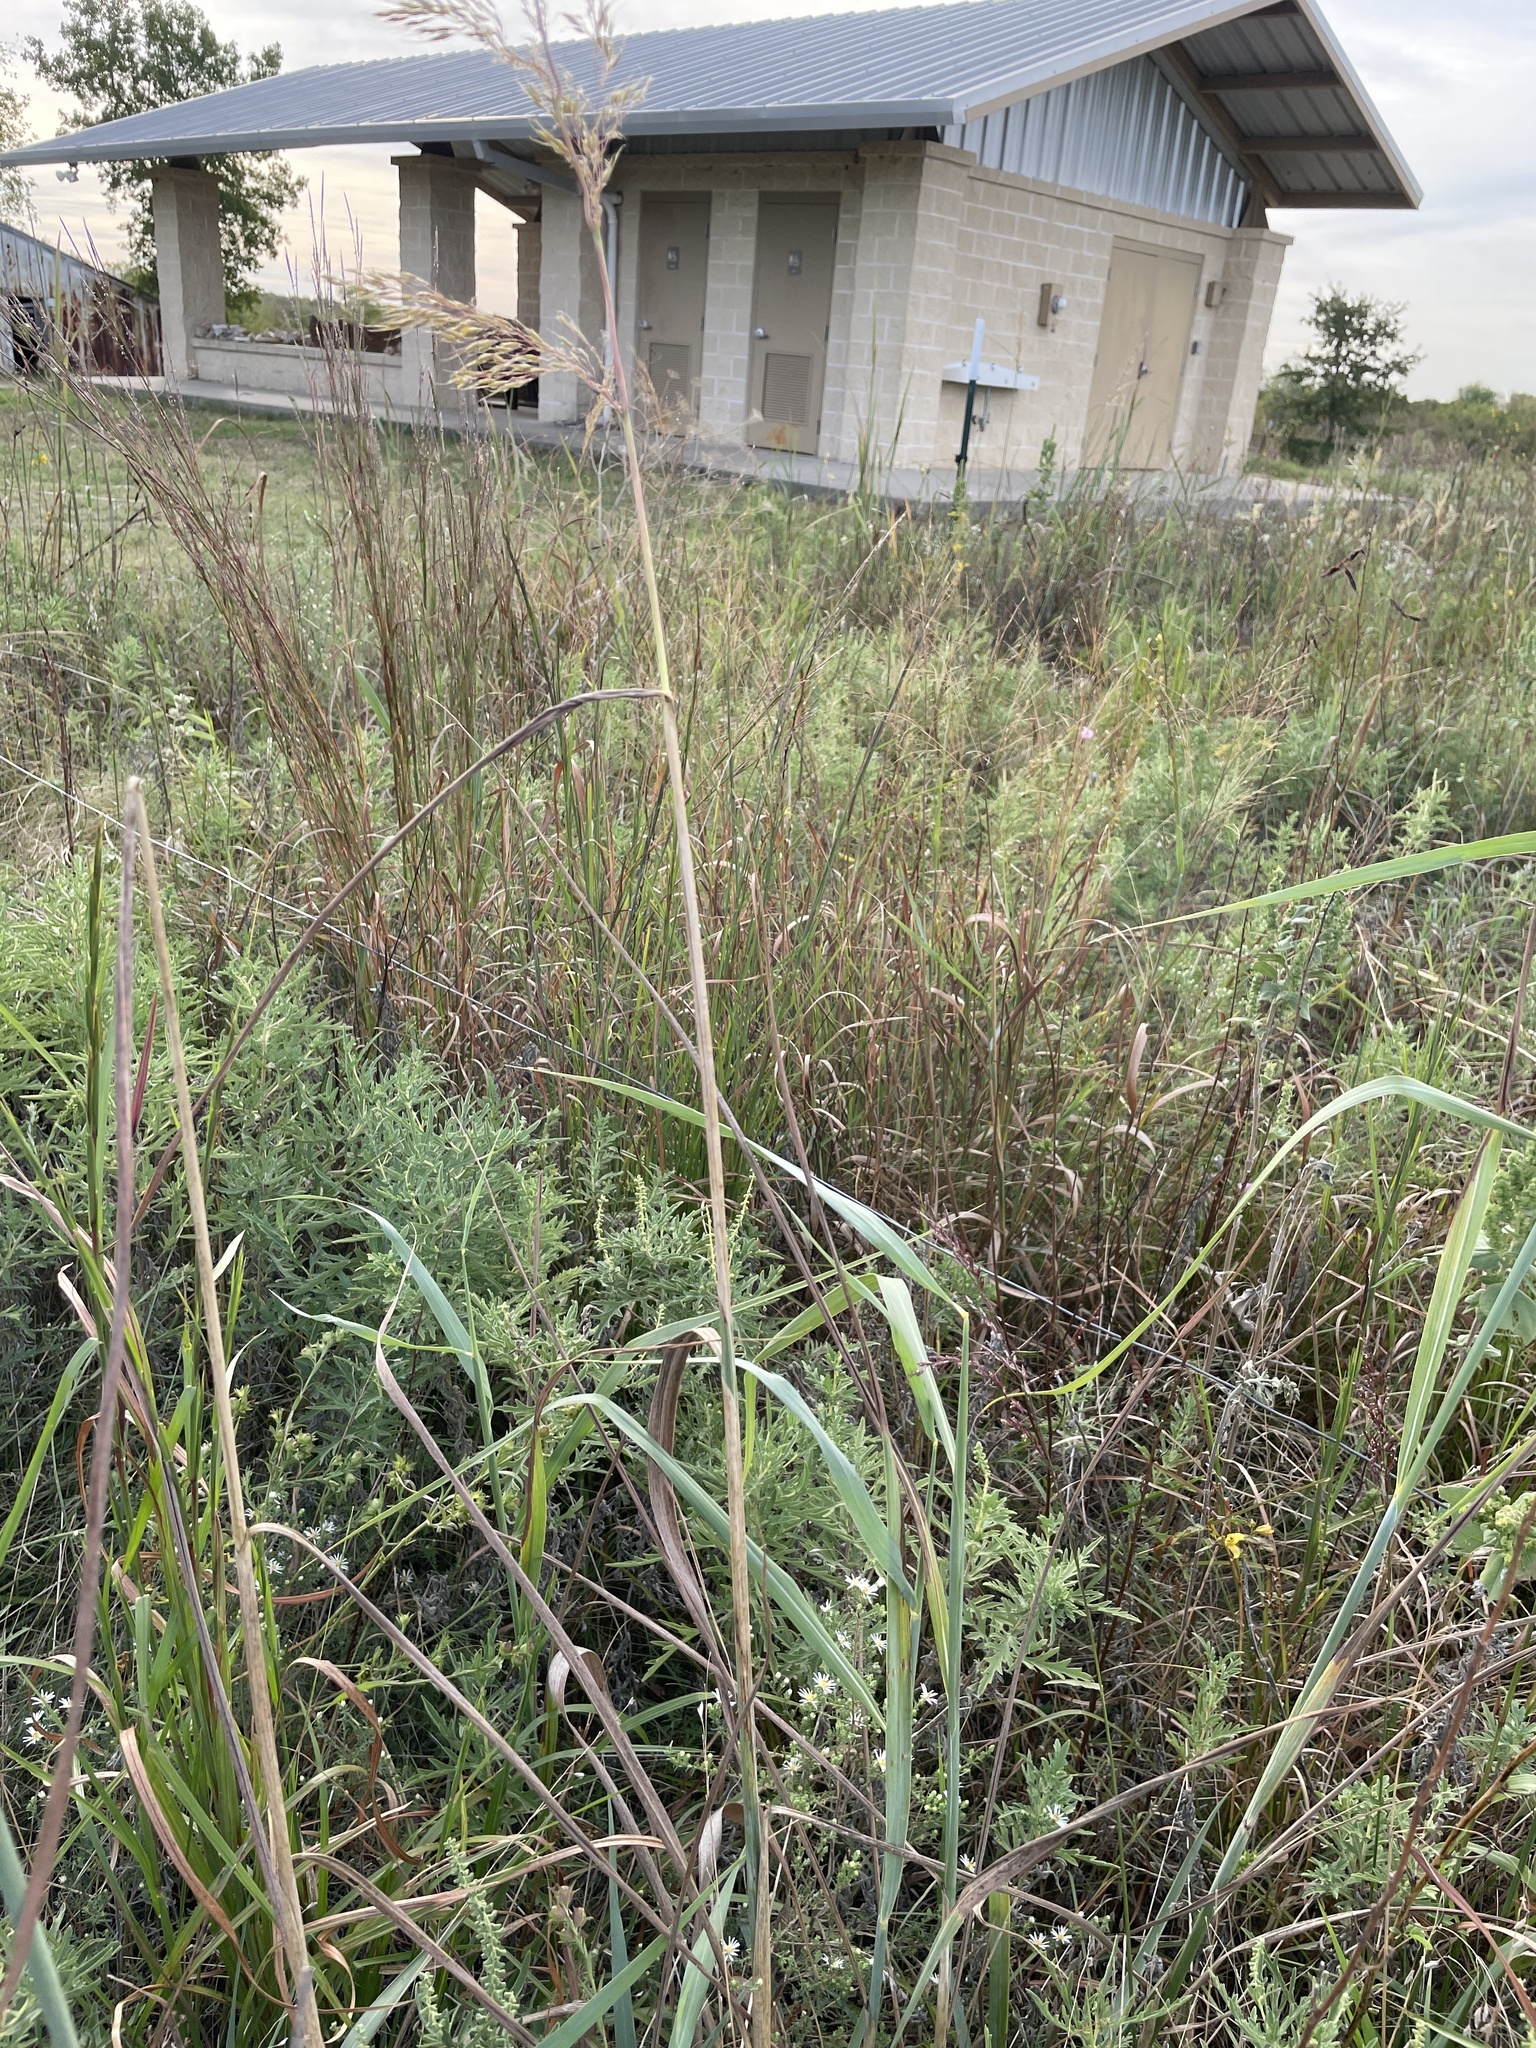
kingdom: Plantae
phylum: Tracheophyta
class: Liliopsida
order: Poales
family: Poaceae
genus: Sorghastrum
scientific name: Sorghastrum nutans
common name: Indian grass
